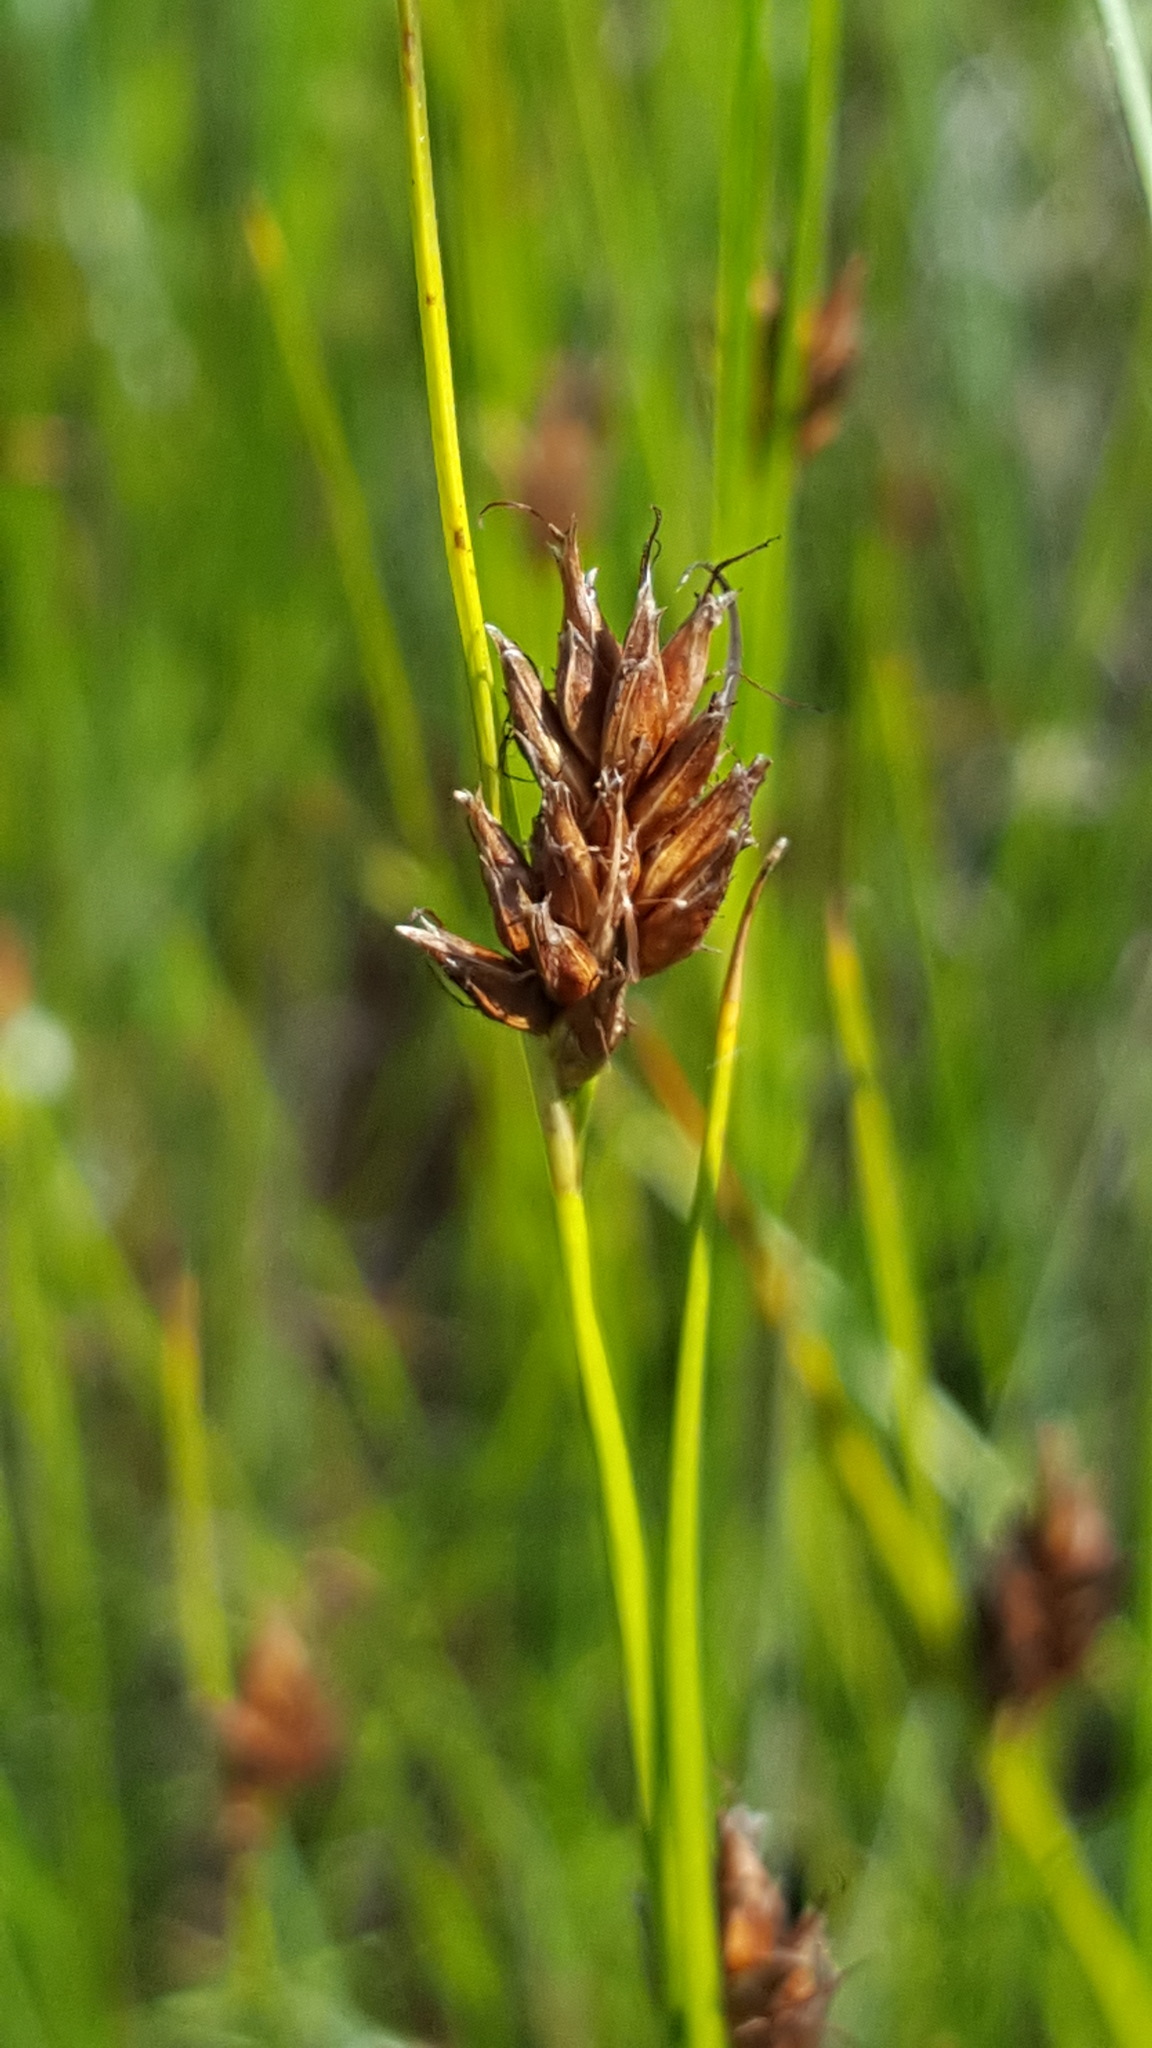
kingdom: Plantae
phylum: Tracheophyta
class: Liliopsida
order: Poales
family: Cyperaceae
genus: Rhynchospora
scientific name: Rhynchospora fusca
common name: Brown beak-sedge
